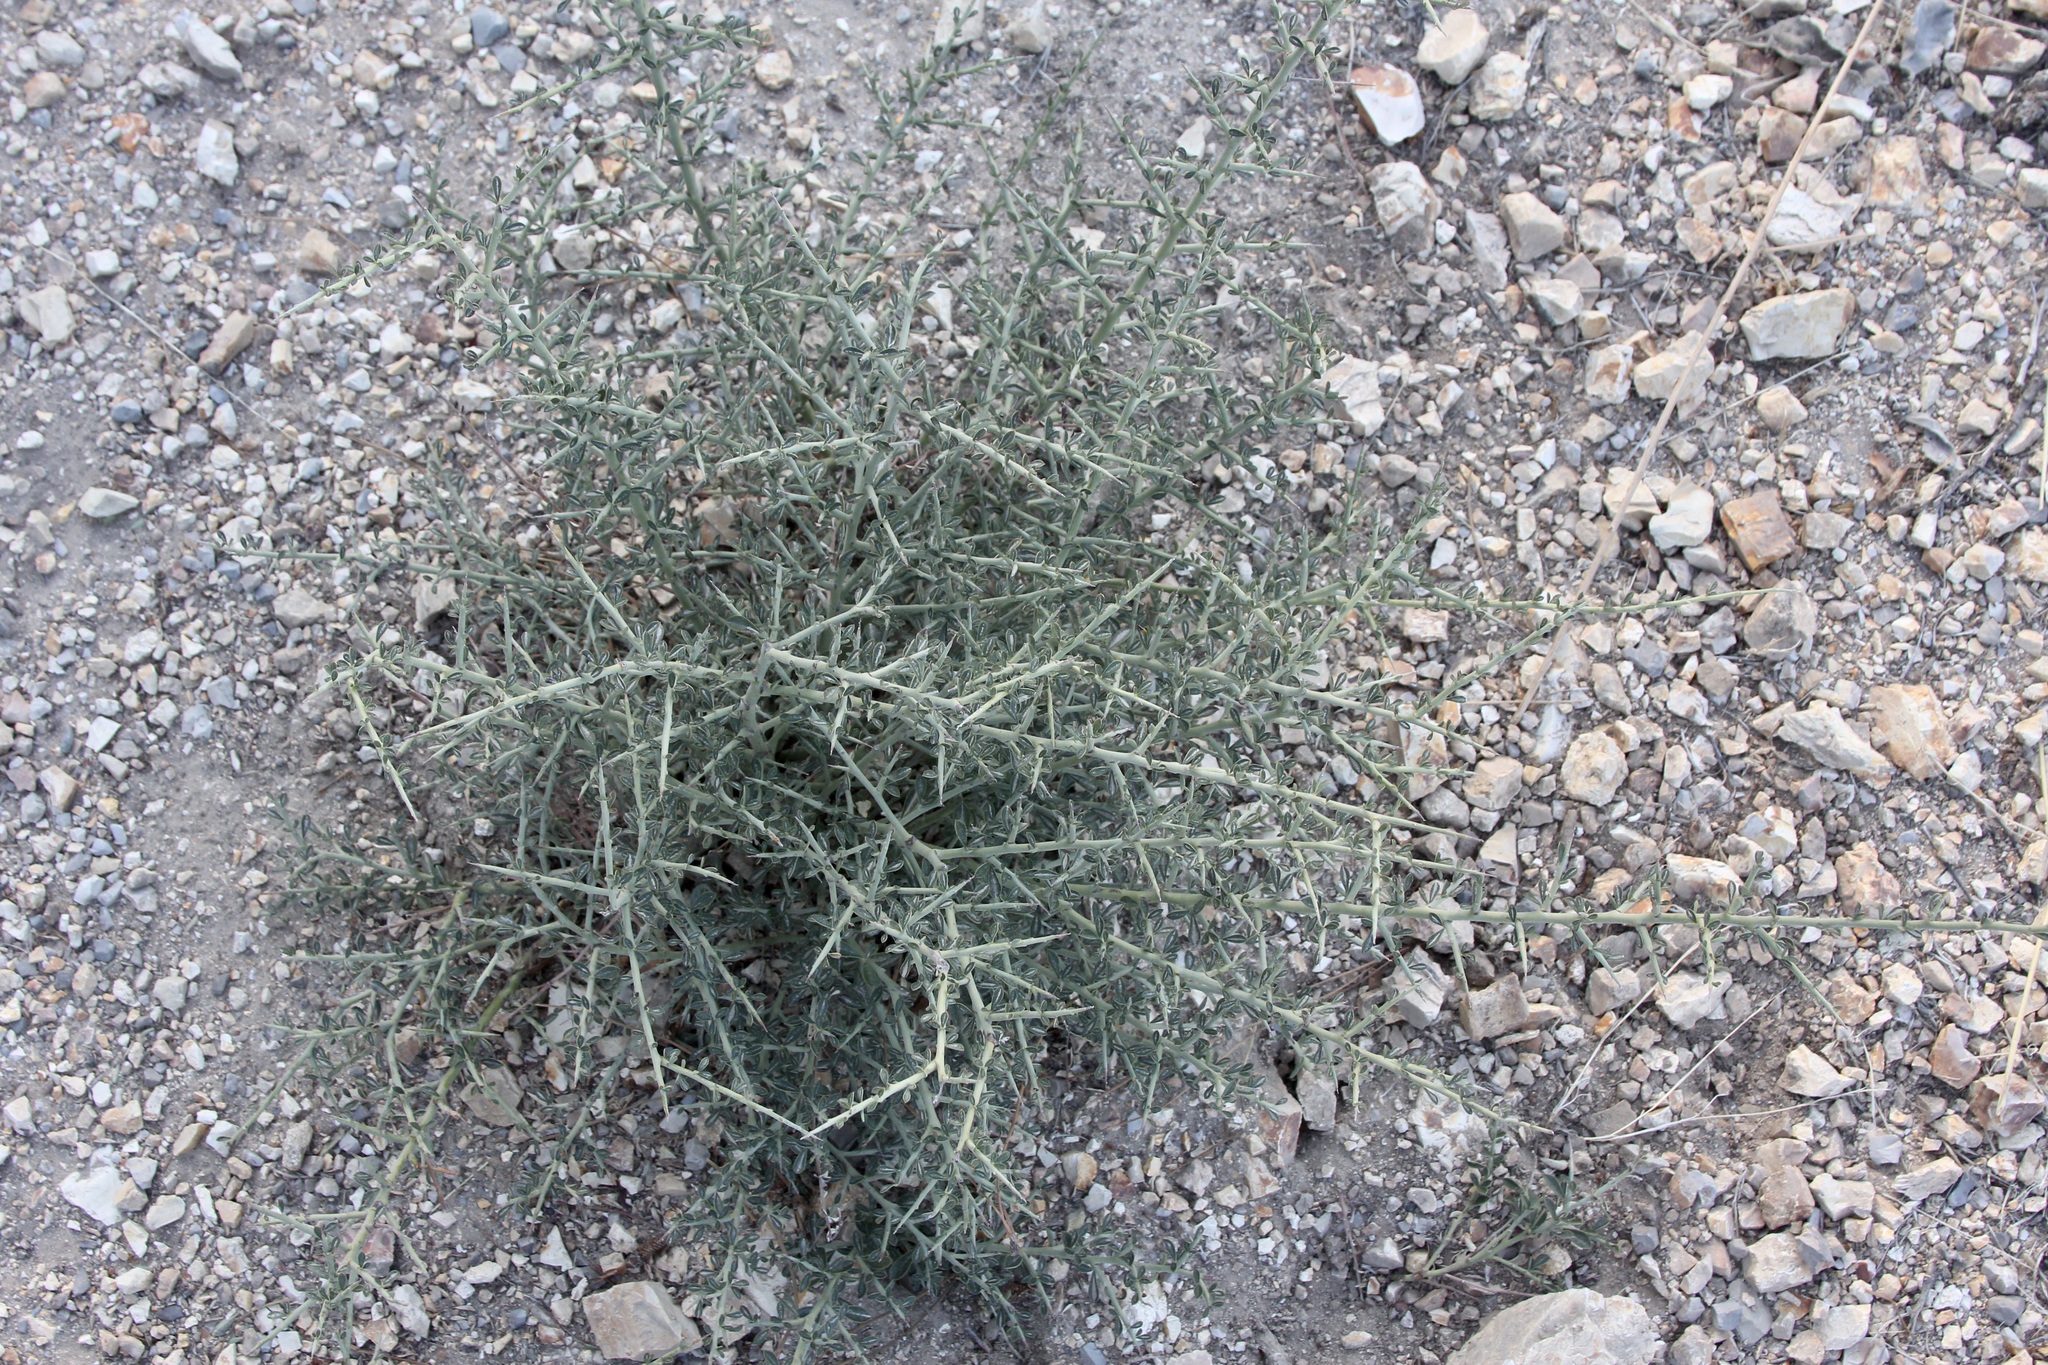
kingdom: Plantae
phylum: Tracheophyta
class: Magnoliopsida
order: Fabales
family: Fabaceae
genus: Pickeringia
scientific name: Pickeringia montana
